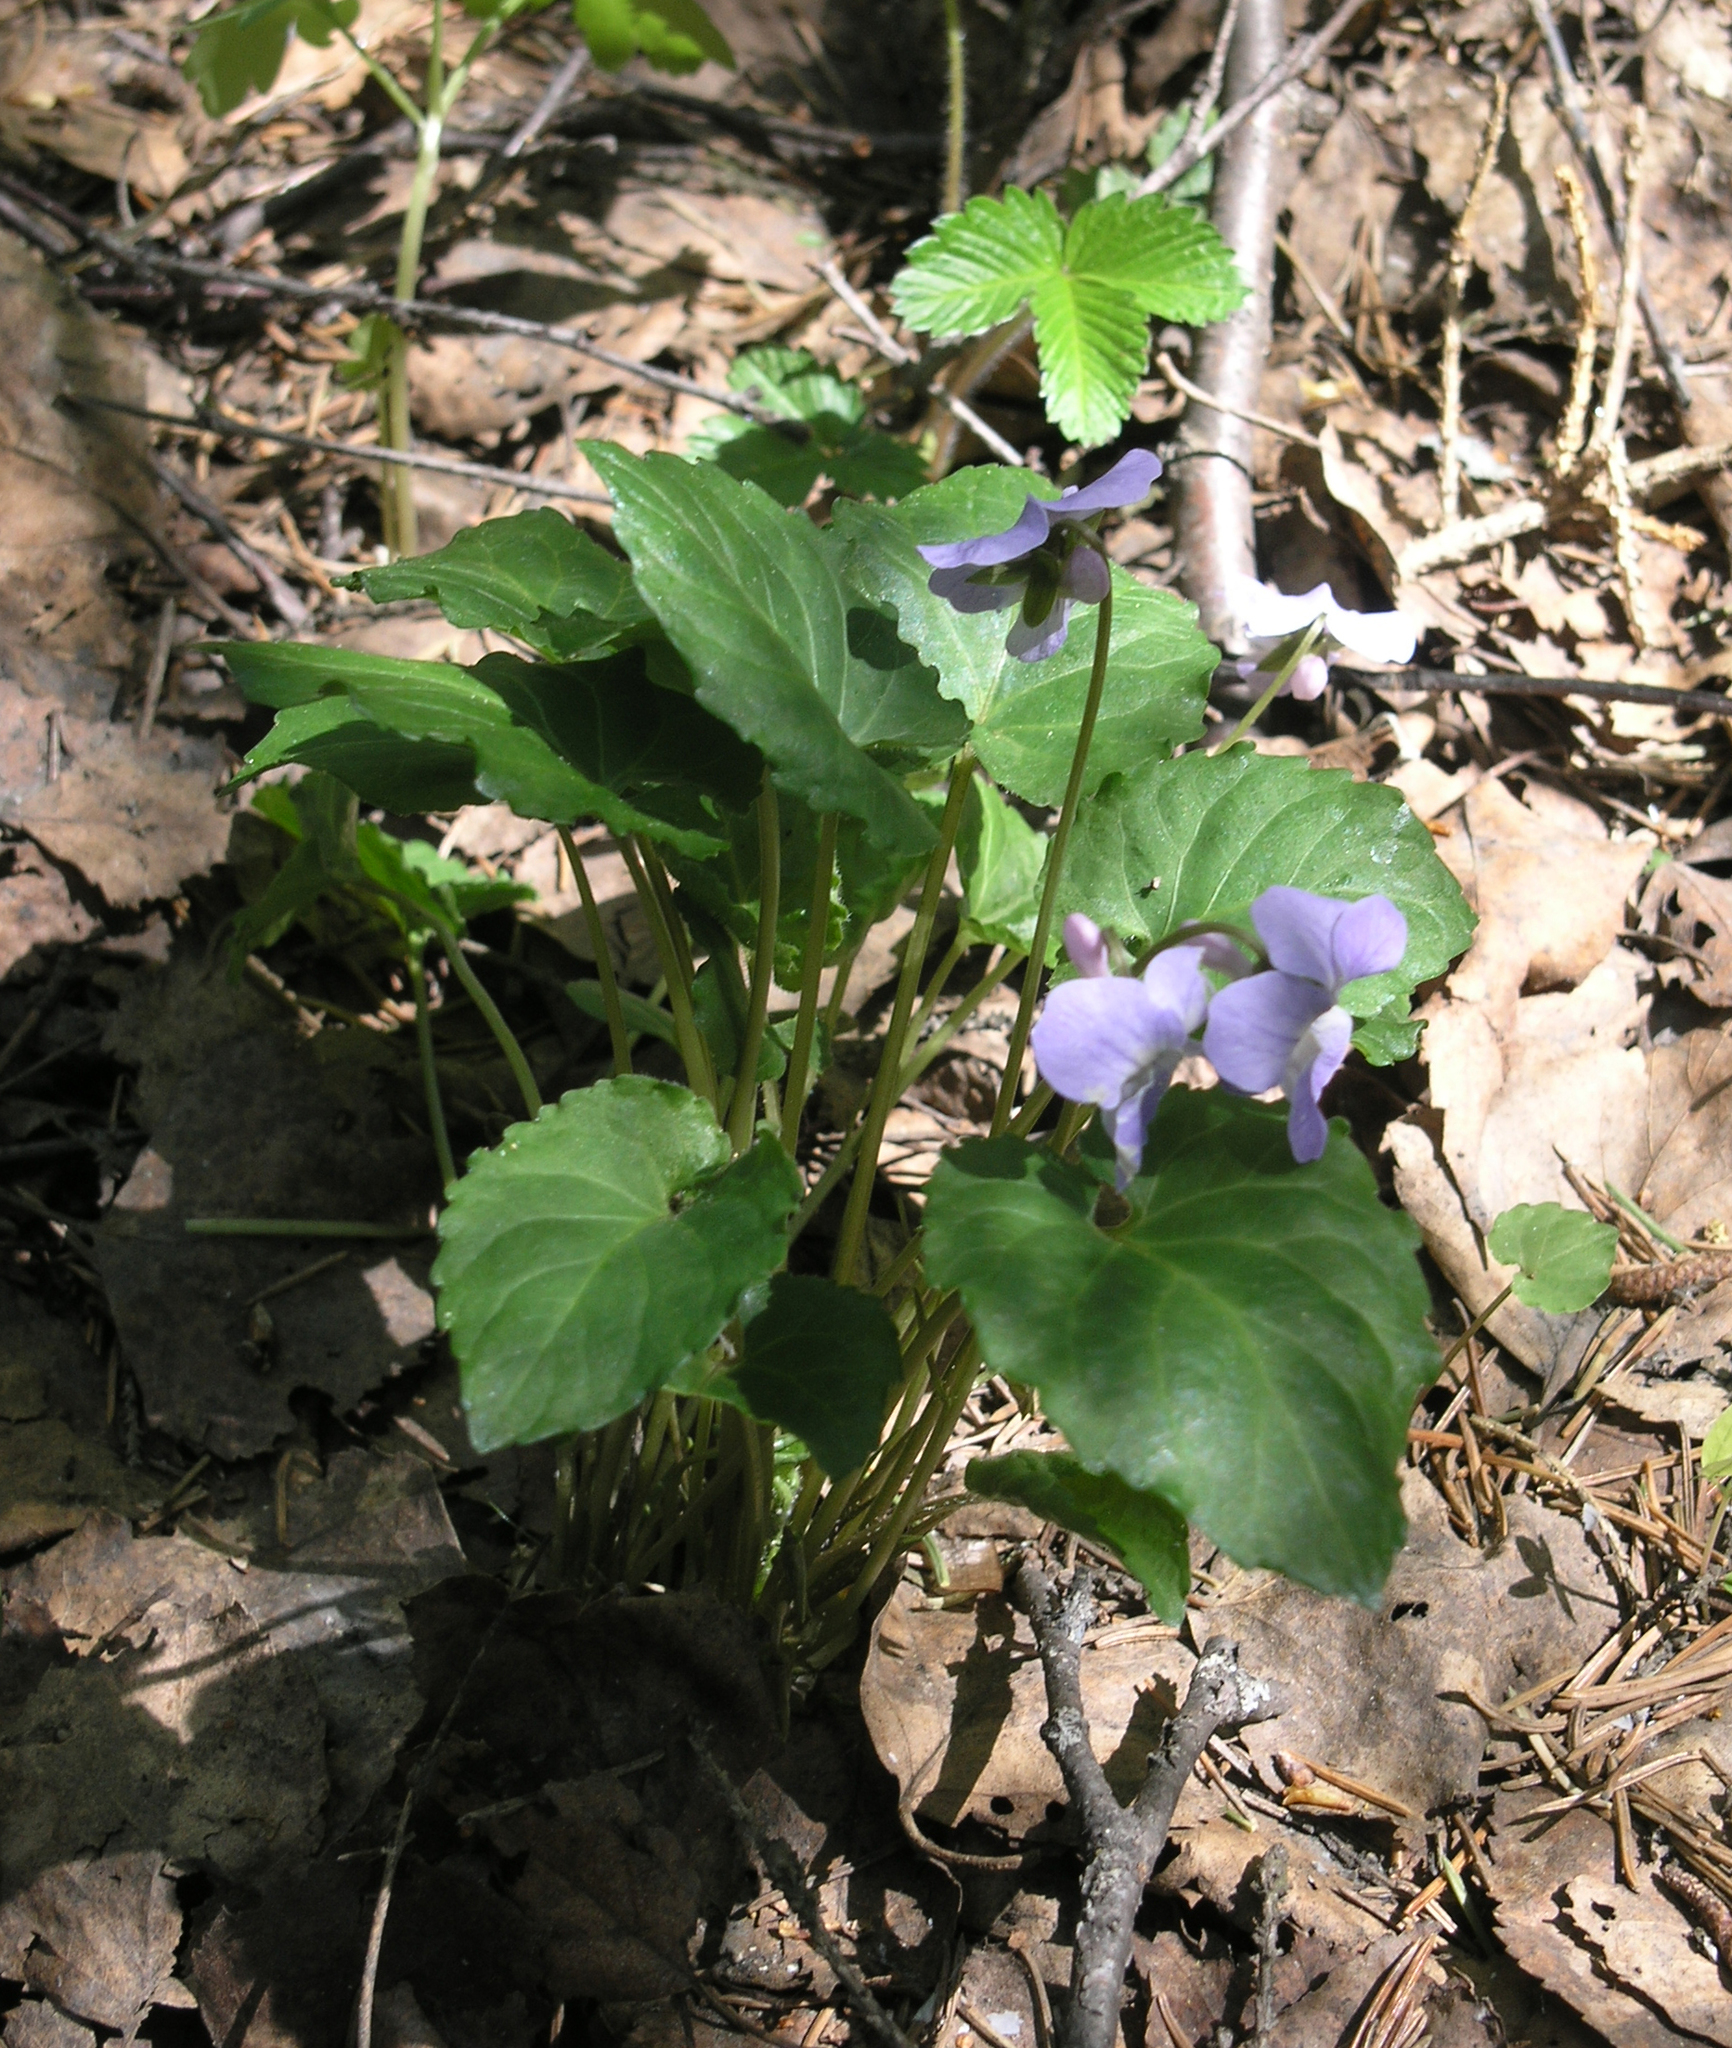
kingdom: Plantae
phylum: Tracheophyta
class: Magnoliopsida
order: Malpighiales
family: Violaceae
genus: Viola
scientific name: Viola selkirkii
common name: Selkirk's violet
